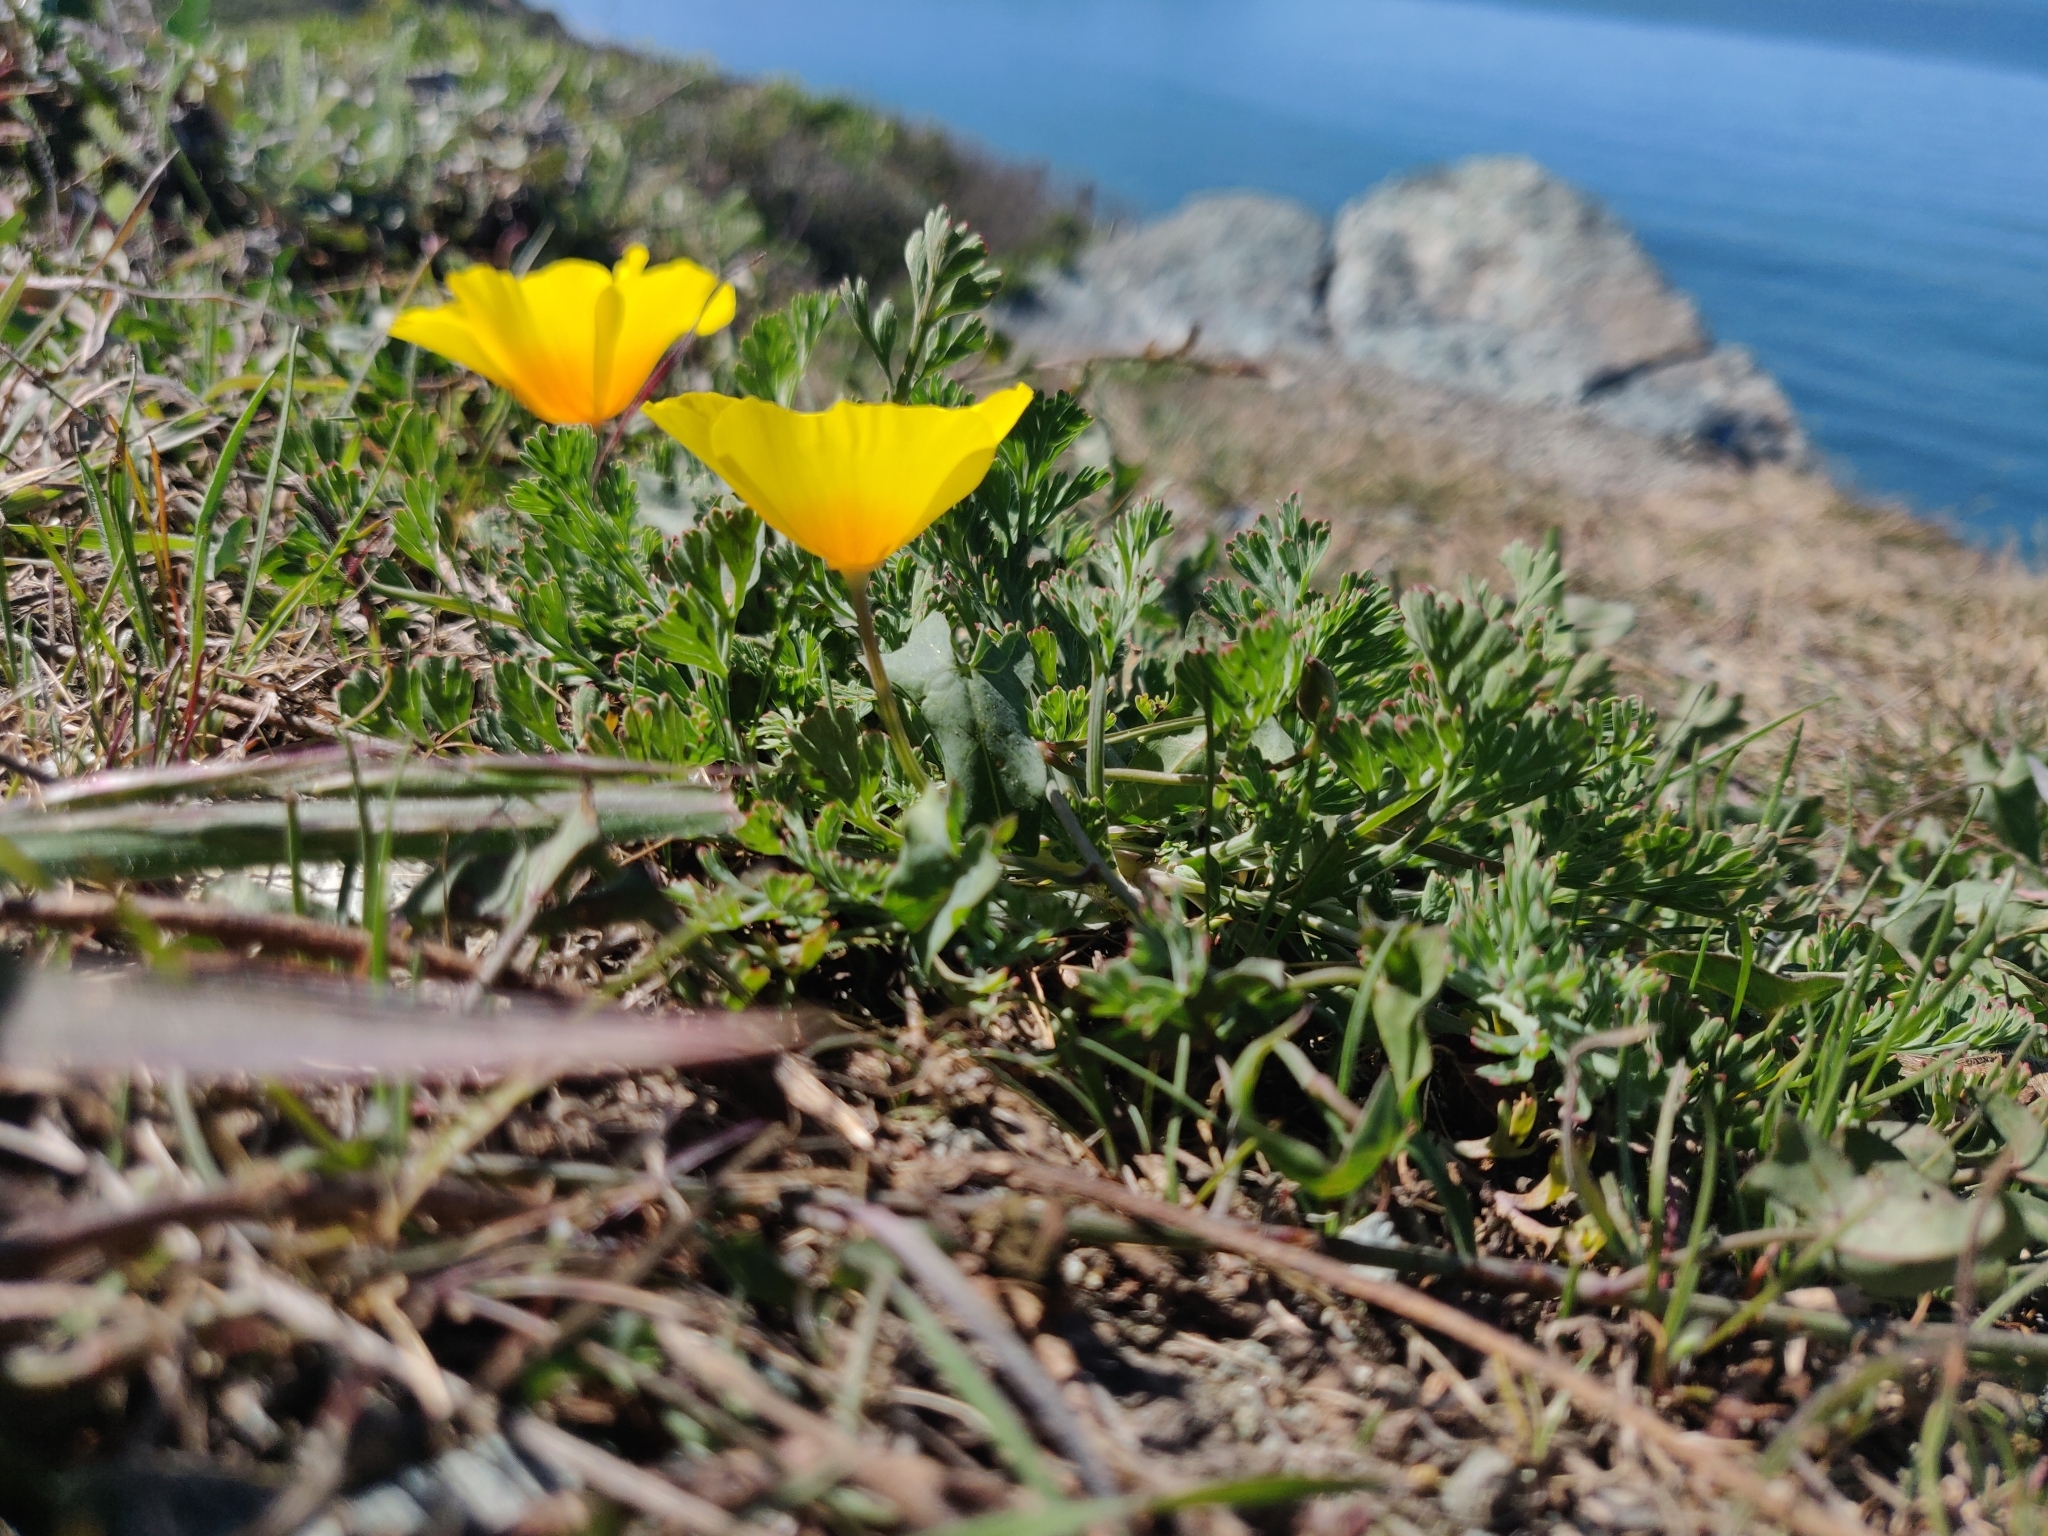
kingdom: Plantae
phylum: Tracheophyta
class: Magnoliopsida
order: Ranunculales
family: Papaveraceae
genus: Eschscholzia
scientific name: Eschscholzia californica
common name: California poppy
